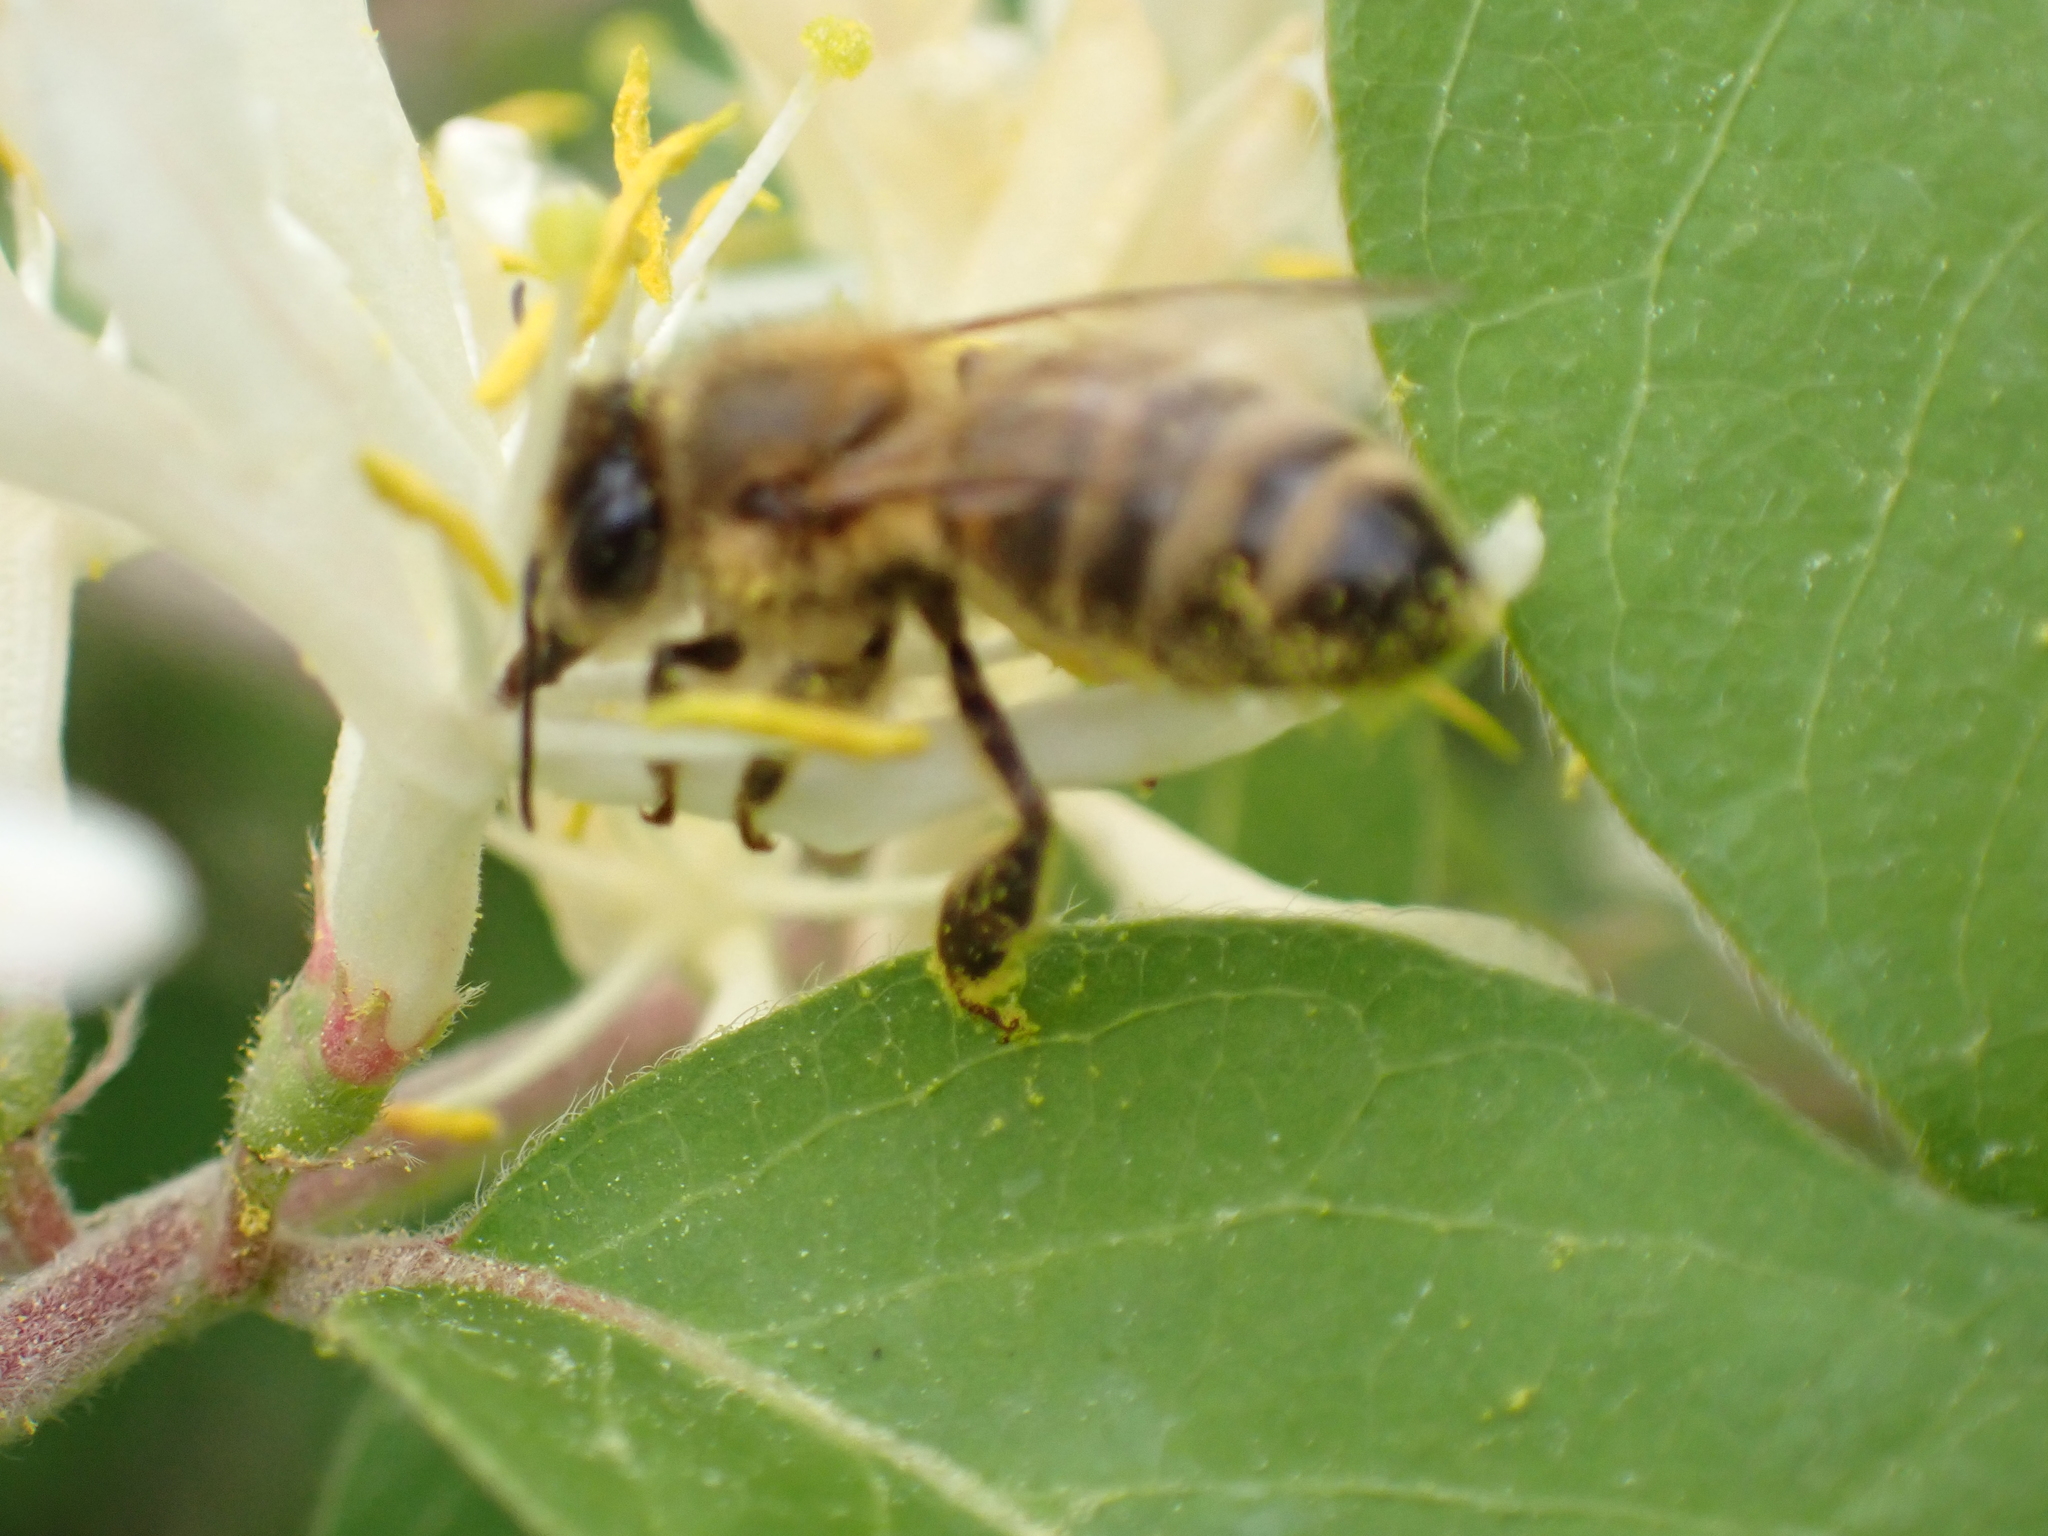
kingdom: Animalia
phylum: Arthropoda
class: Insecta
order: Hymenoptera
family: Apidae
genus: Apis
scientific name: Apis mellifera
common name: Honey bee
